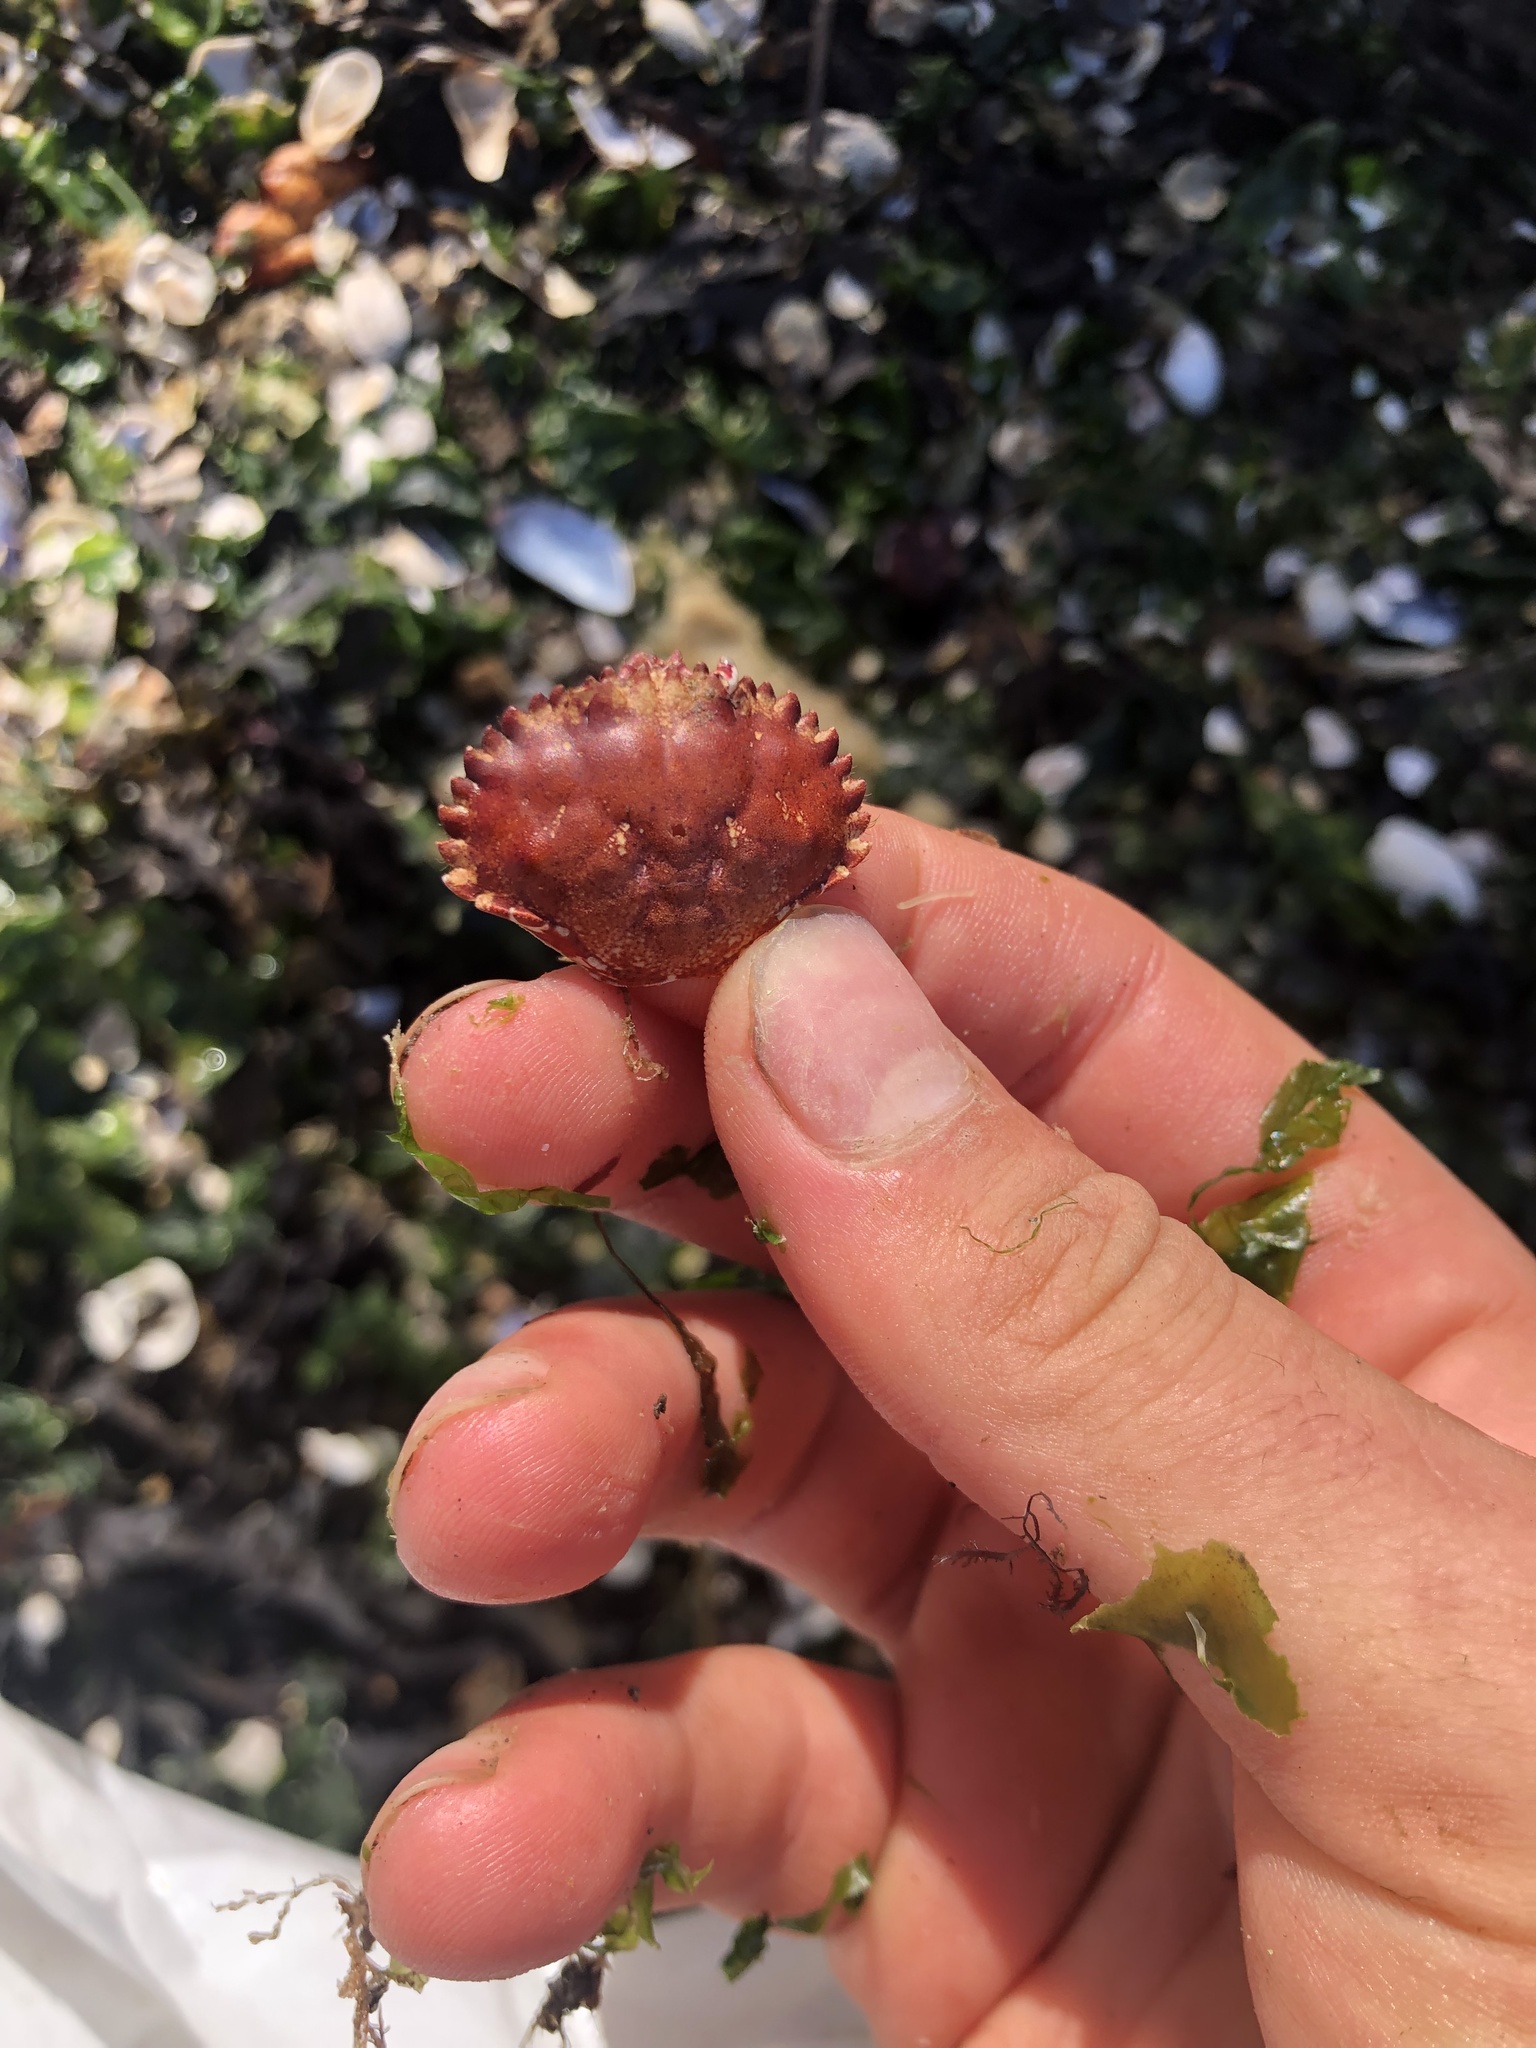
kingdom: Animalia
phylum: Arthropoda
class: Malacostraca
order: Decapoda
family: Cancridae
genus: Romaleon
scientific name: Romaleon antennarium
